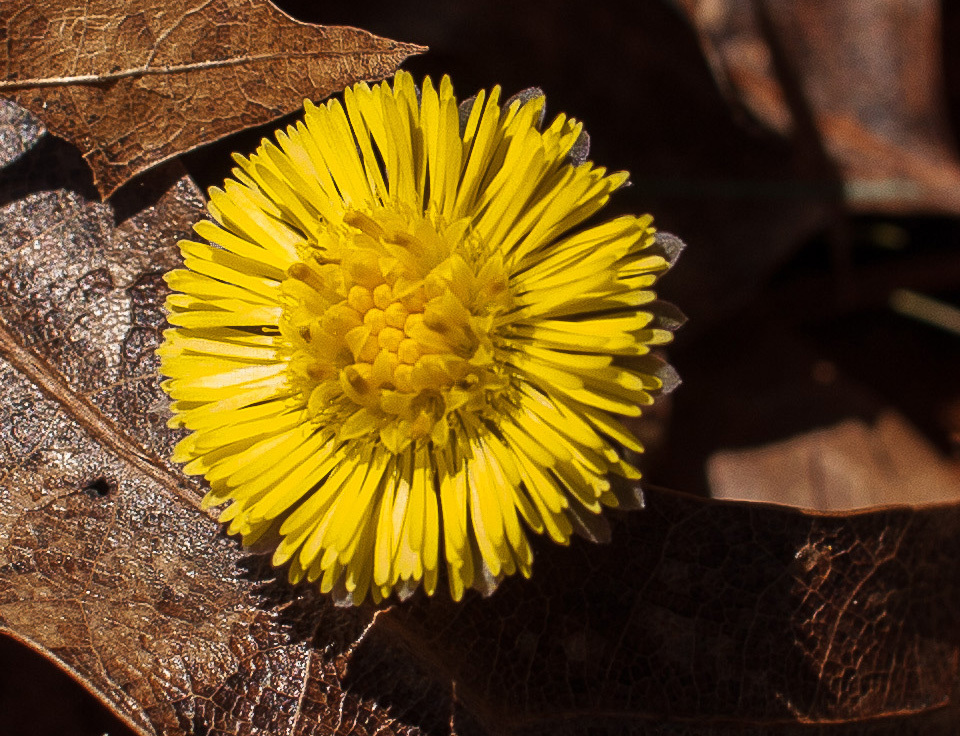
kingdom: Plantae
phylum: Tracheophyta
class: Magnoliopsida
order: Asterales
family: Asteraceae
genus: Tussilago
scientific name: Tussilago farfara
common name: Coltsfoot
